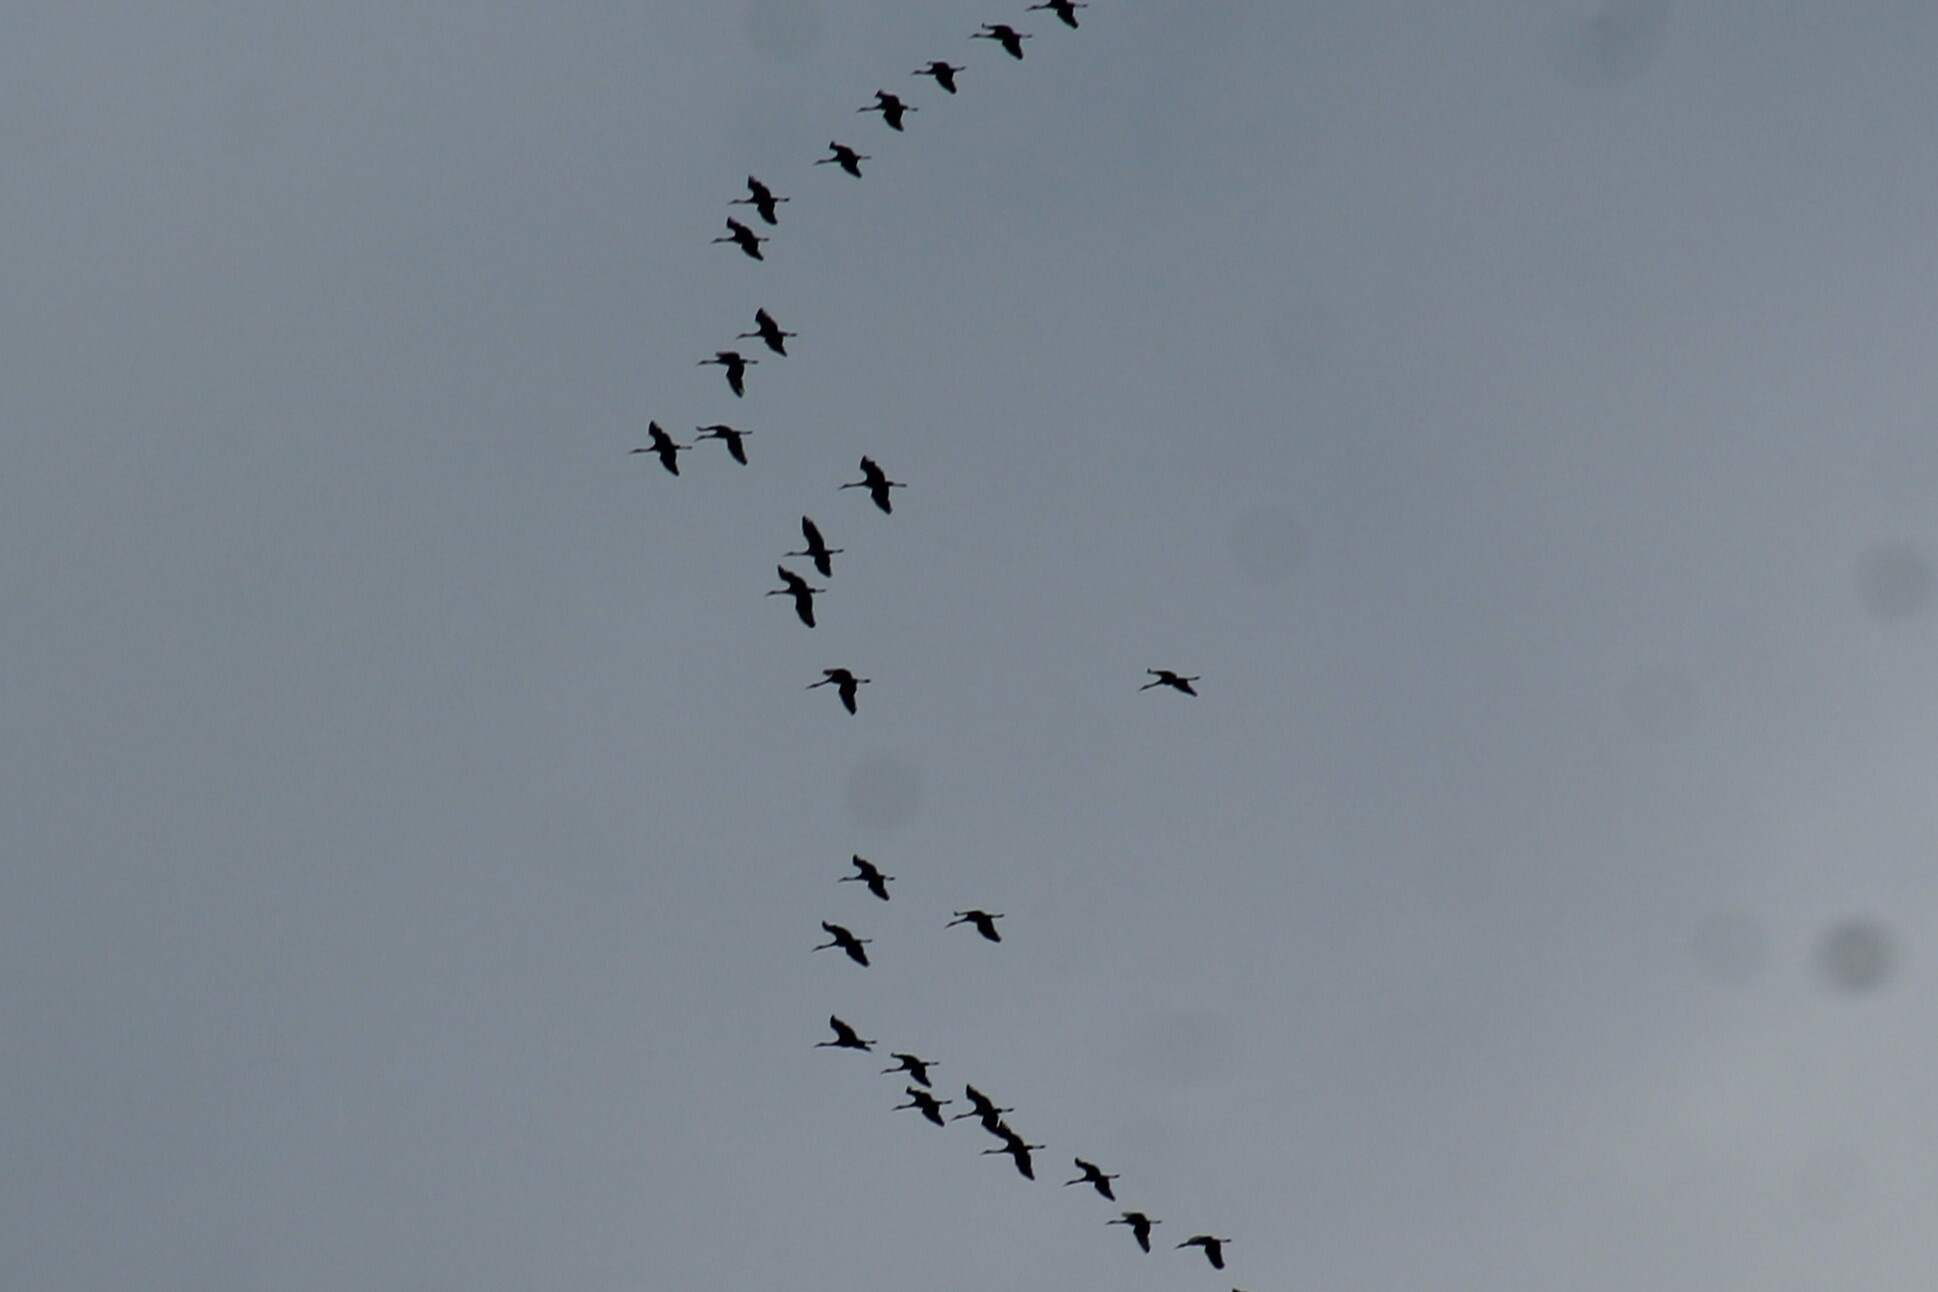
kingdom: Animalia
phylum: Chordata
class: Aves
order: Gruiformes
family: Gruidae
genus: Grus
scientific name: Grus canadensis
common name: Sandhill crane
